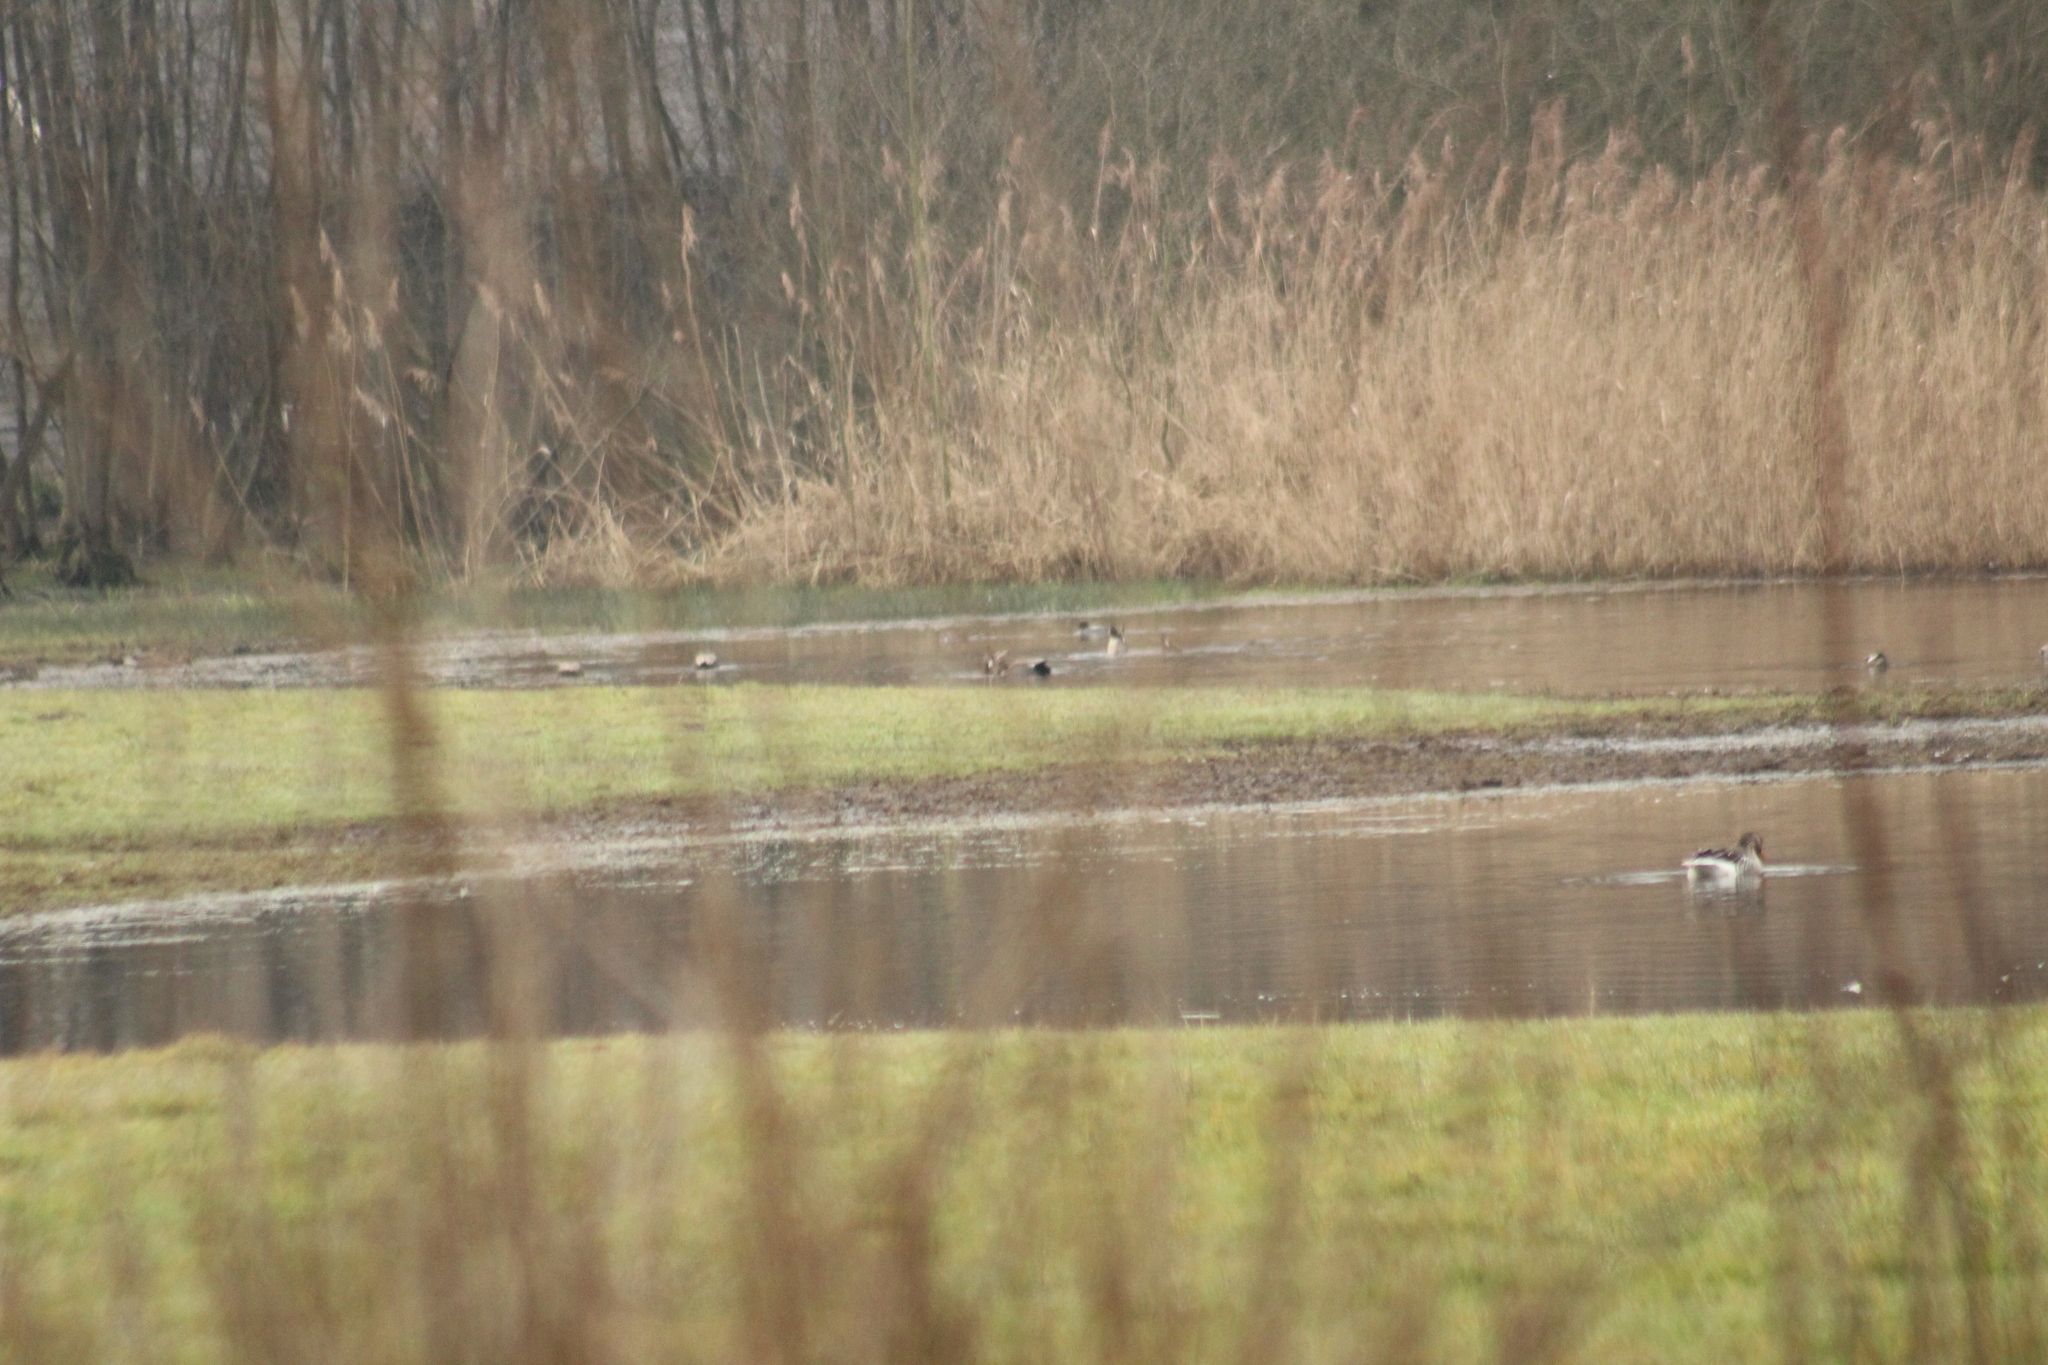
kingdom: Animalia
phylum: Chordata
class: Aves
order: Anseriformes
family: Anatidae
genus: Mareca
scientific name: Mareca strepera
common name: Gadwall
